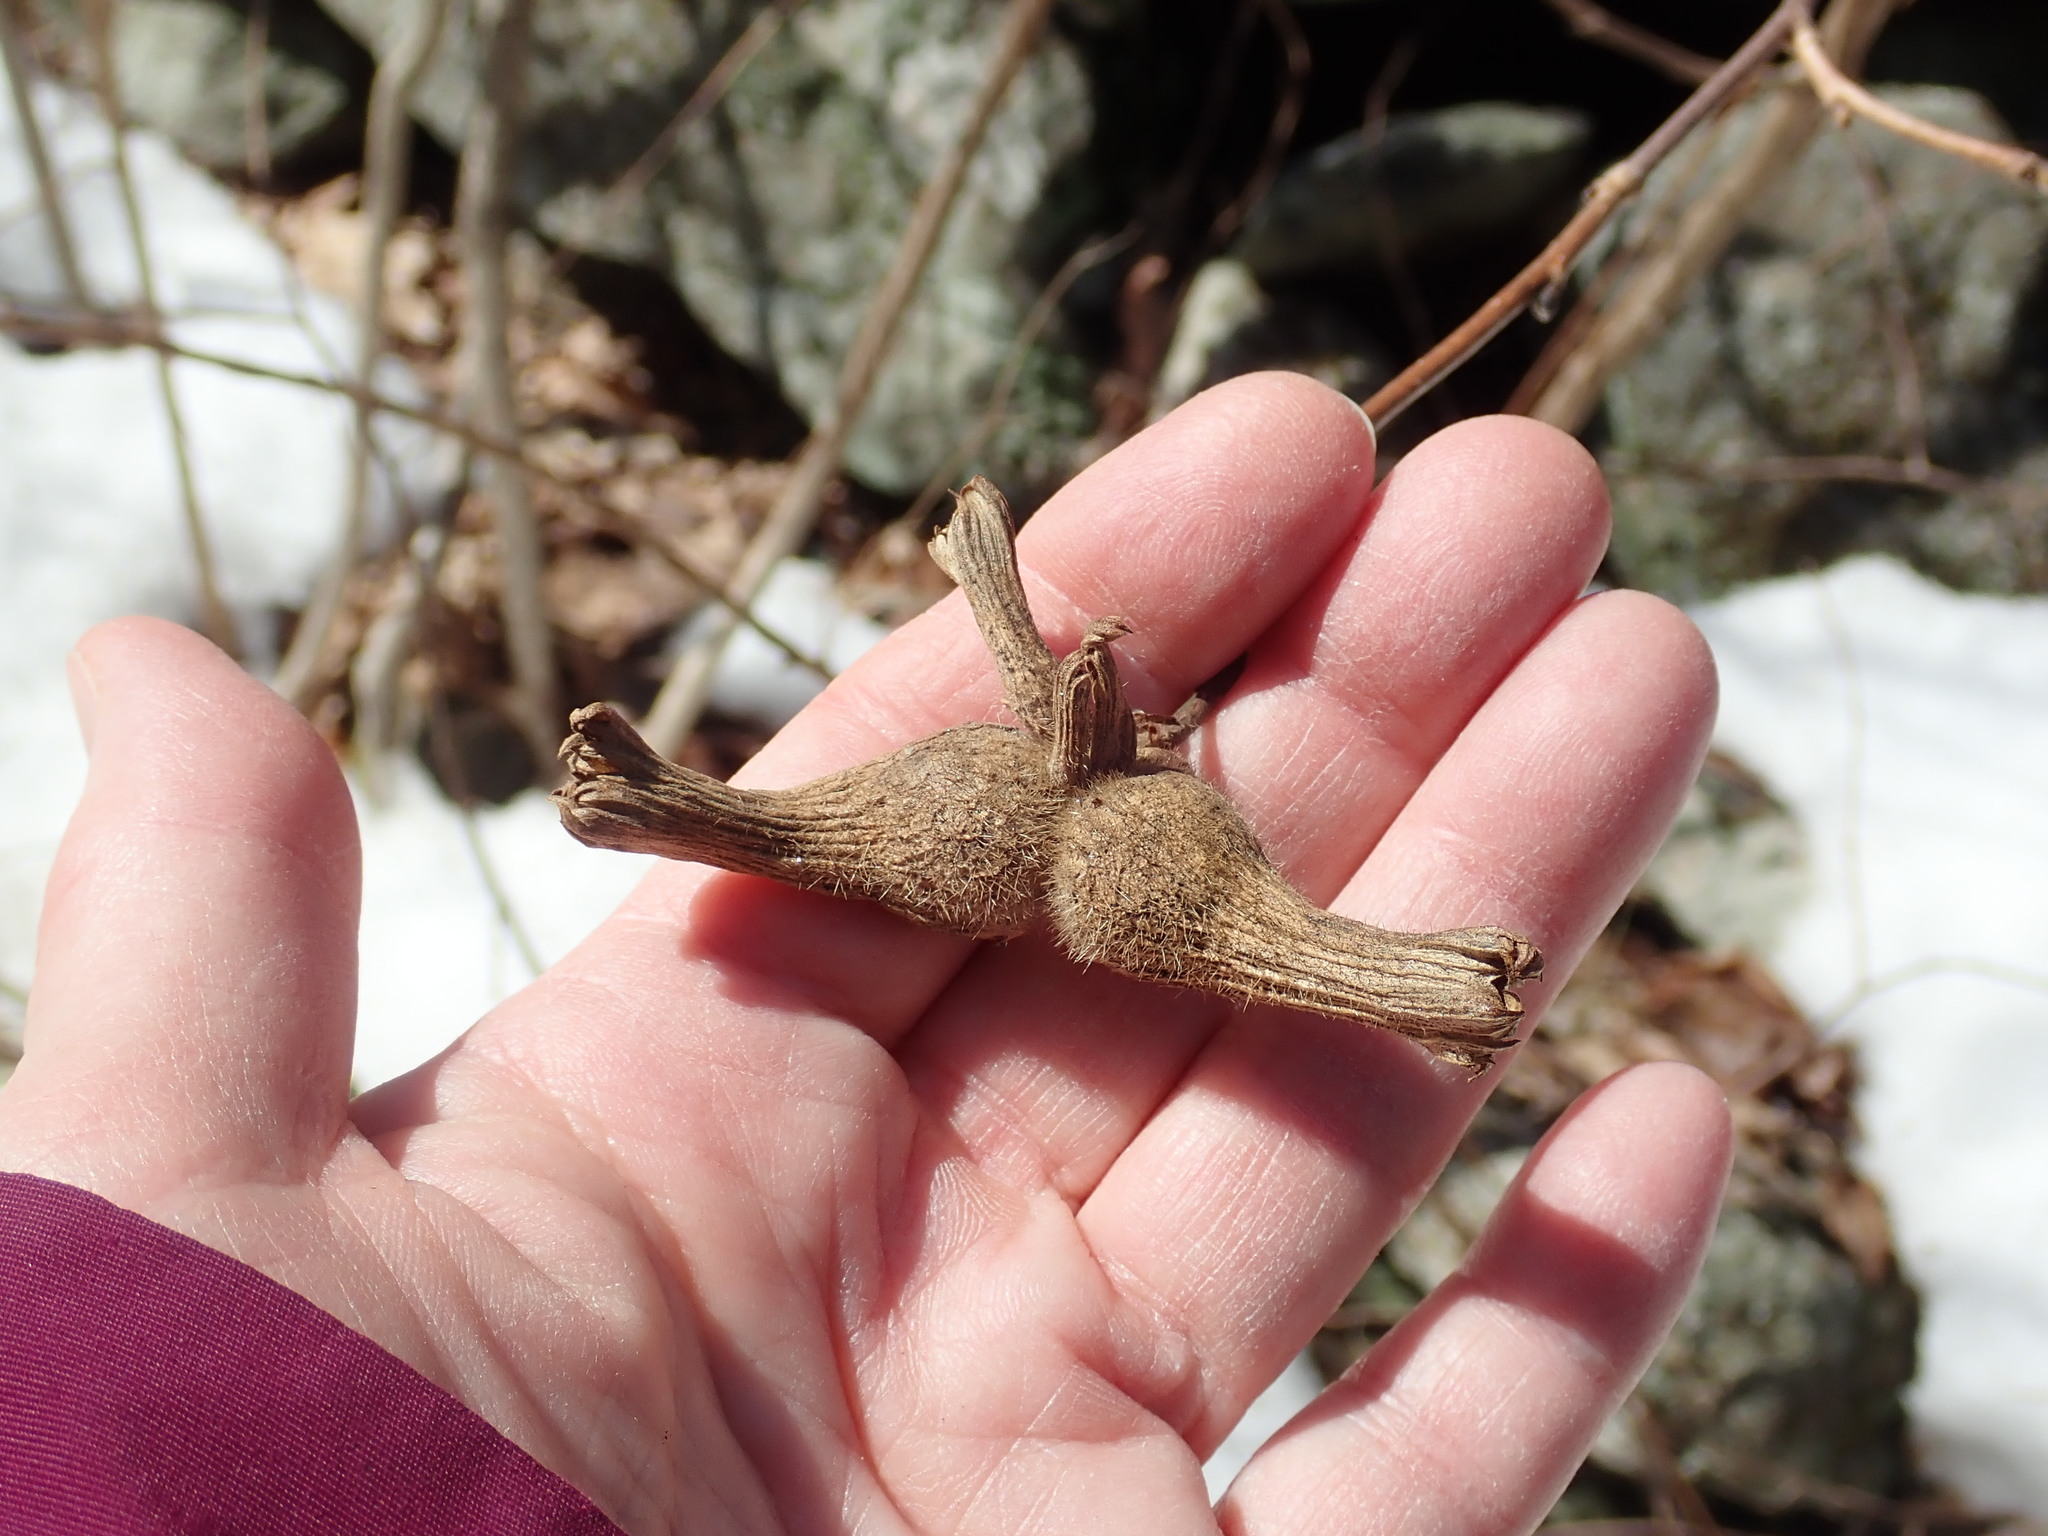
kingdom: Plantae
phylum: Tracheophyta
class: Magnoliopsida
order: Fagales
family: Betulaceae
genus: Corylus
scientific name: Corylus cornuta
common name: Beaked hazel
